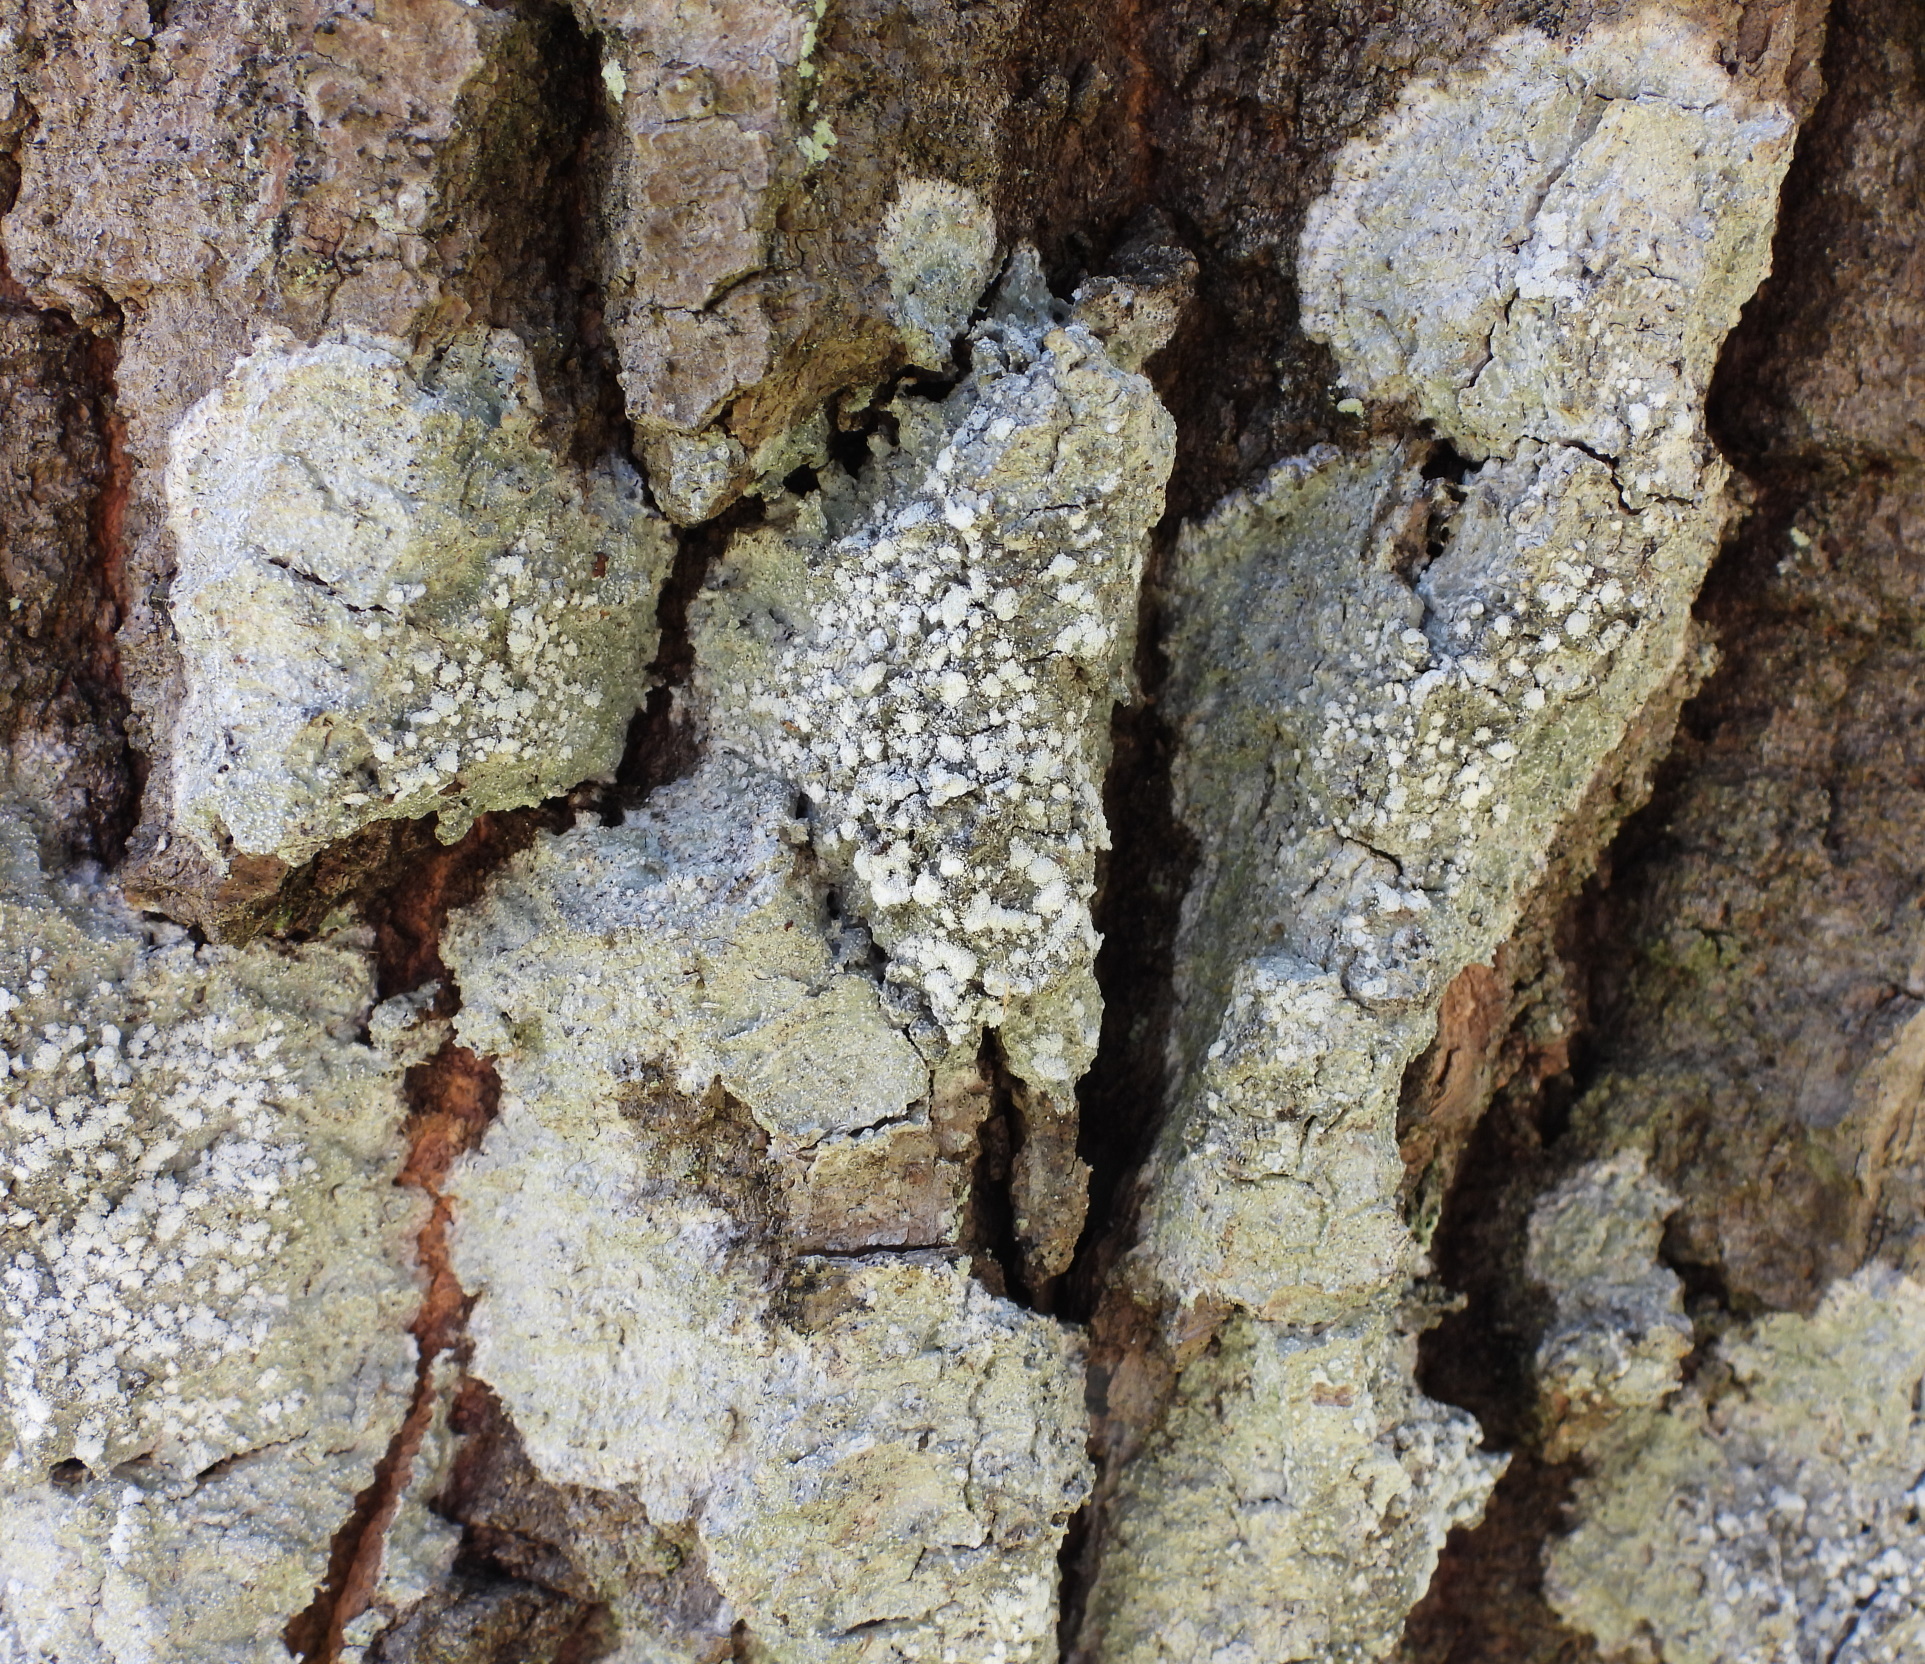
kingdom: Fungi
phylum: Ascomycota
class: Lecanoromycetes
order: Pertusariales
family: Pertusariaceae
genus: Lepra
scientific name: Lepra amara
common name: Bitter wart lichen
